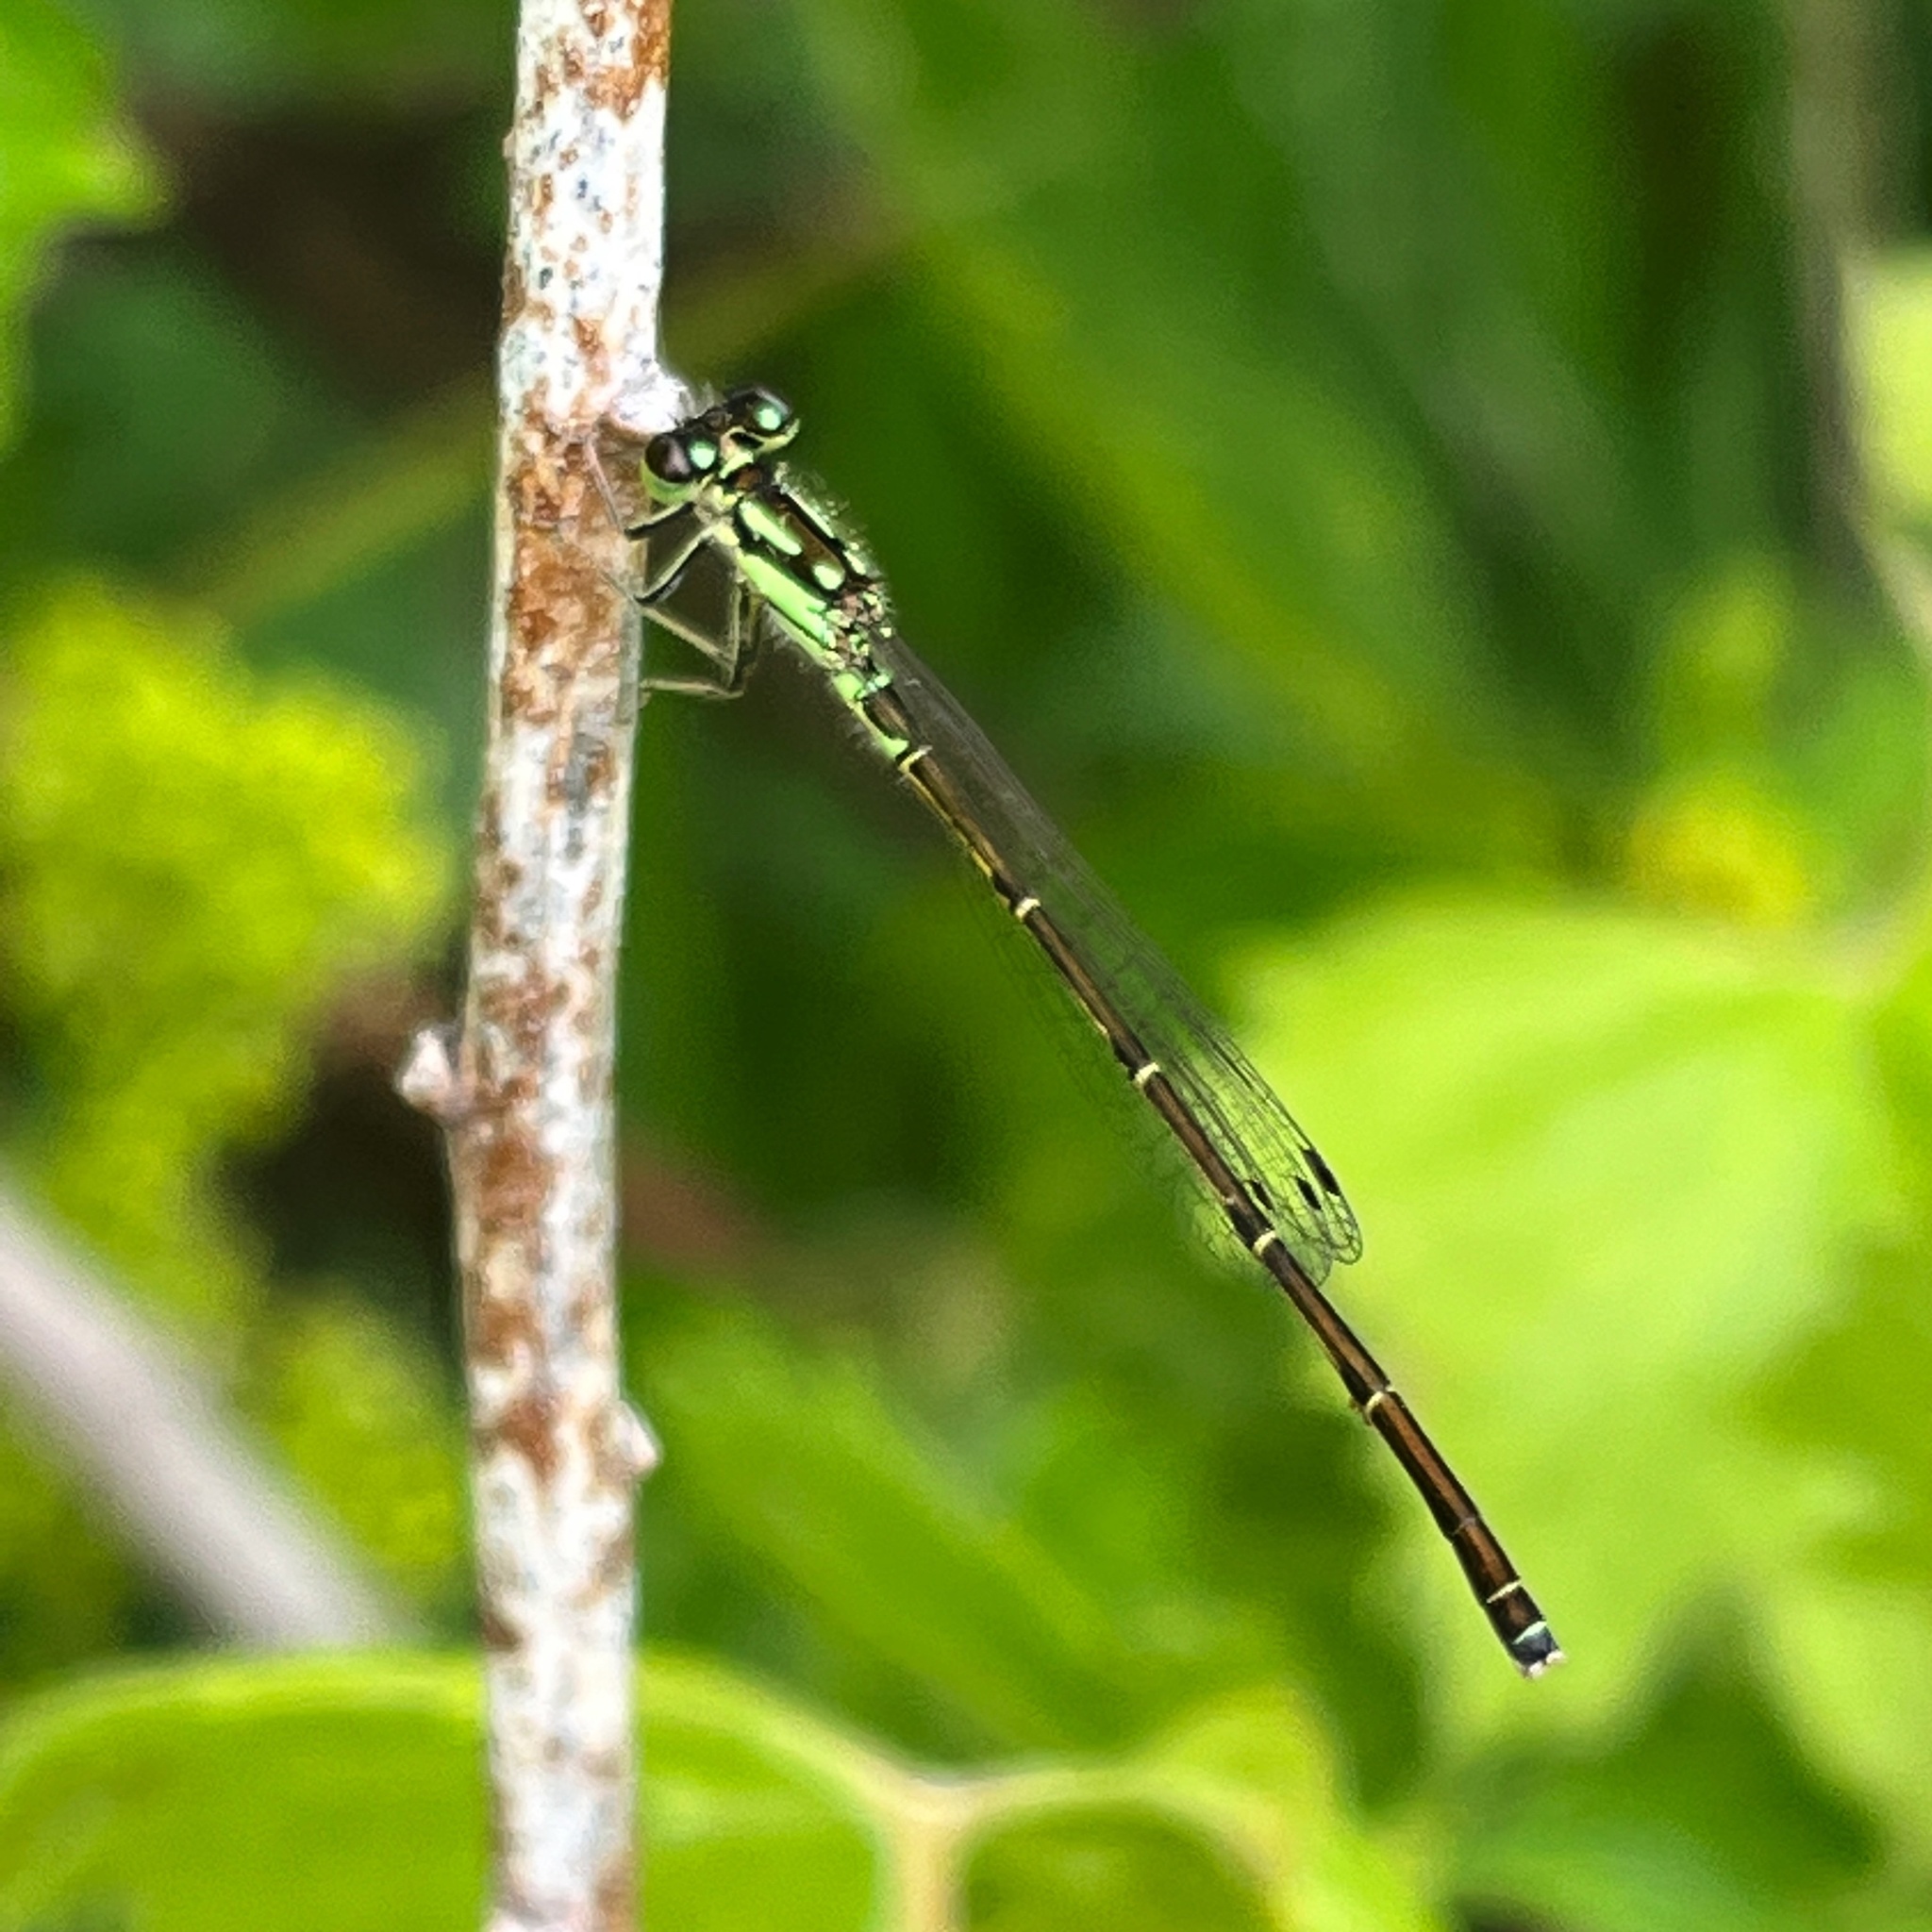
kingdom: Animalia
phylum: Arthropoda
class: Insecta
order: Odonata
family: Coenagrionidae
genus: Ischnura
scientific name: Ischnura posita
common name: Fragile forktail
